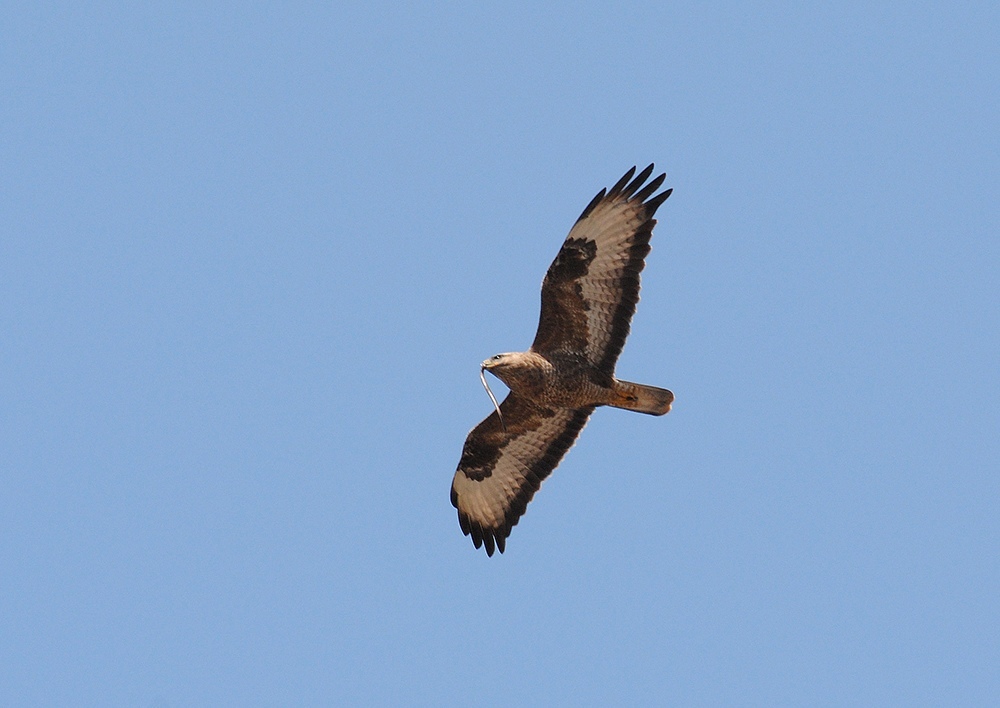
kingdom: Animalia
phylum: Chordata
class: Aves
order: Accipitriformes
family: Accipitridae
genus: Buteo
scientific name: Buteo buteo
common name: Common buzzard
